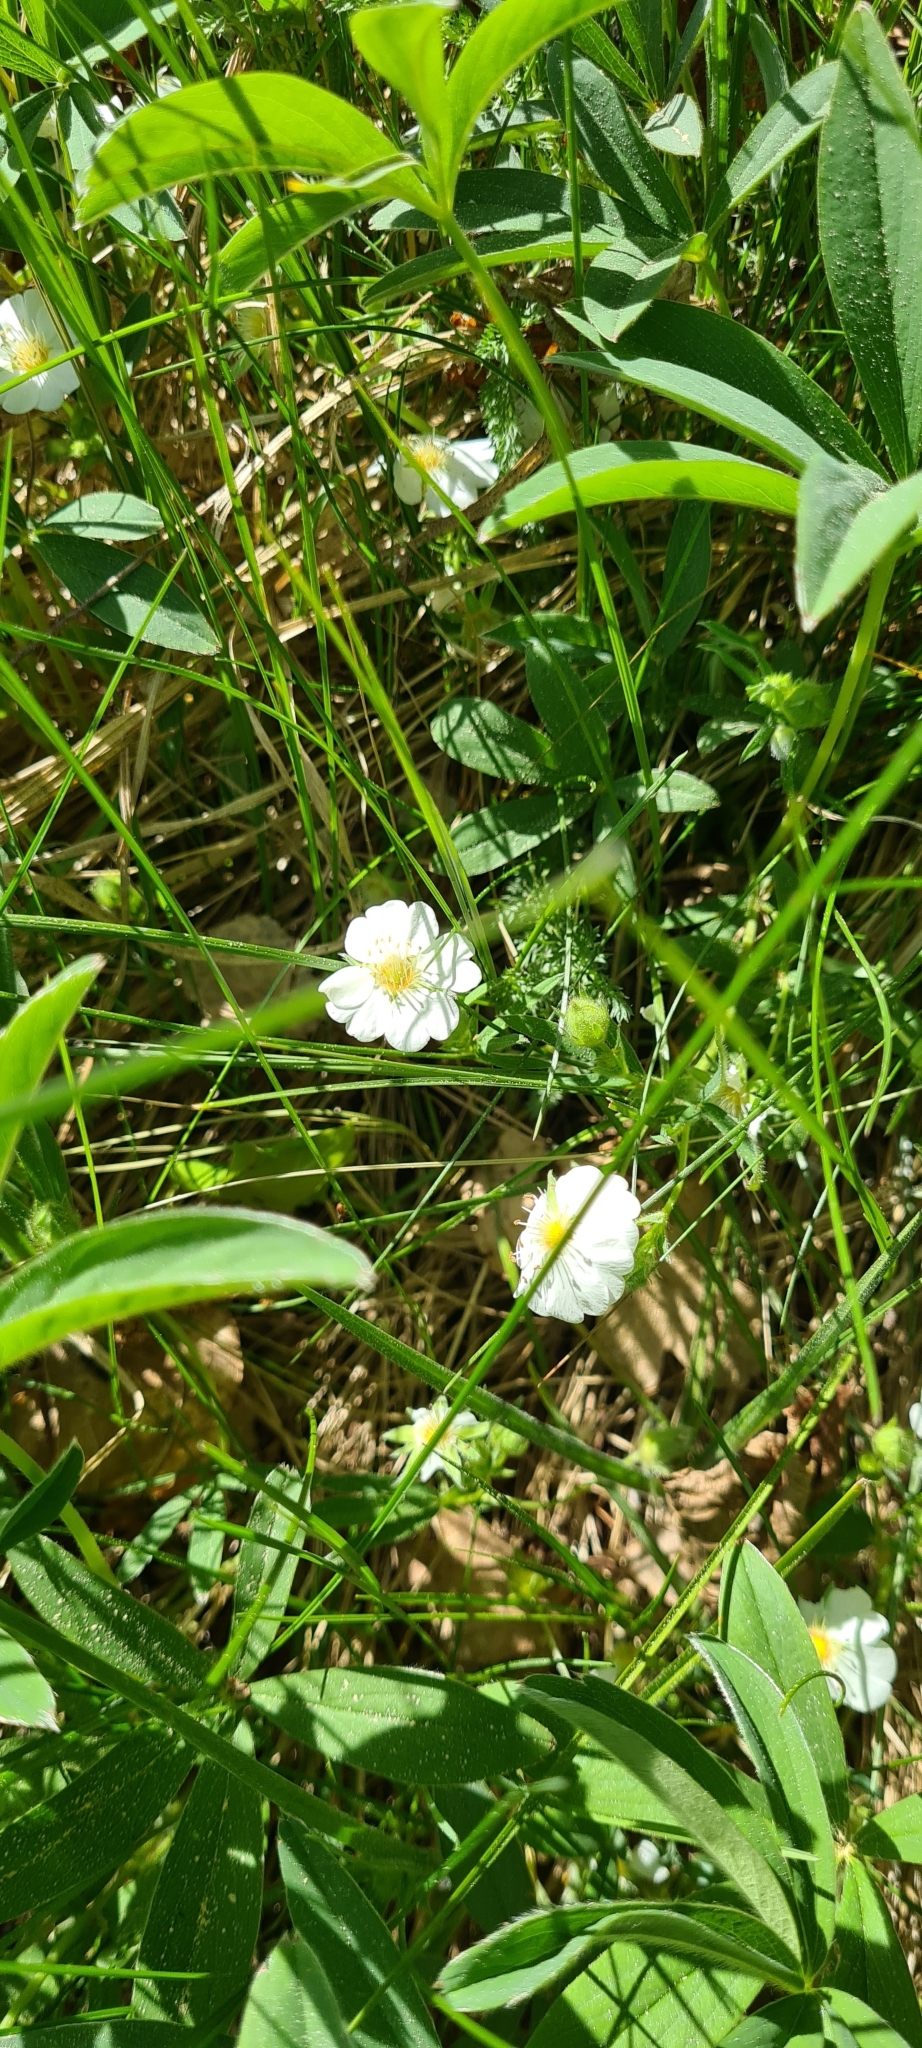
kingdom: Plantae
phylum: Tracheophyta
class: Magnoliopsida
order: Rosales
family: Rosaceae
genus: Potentilla
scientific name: Potentilla alba
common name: White cinquefoil
